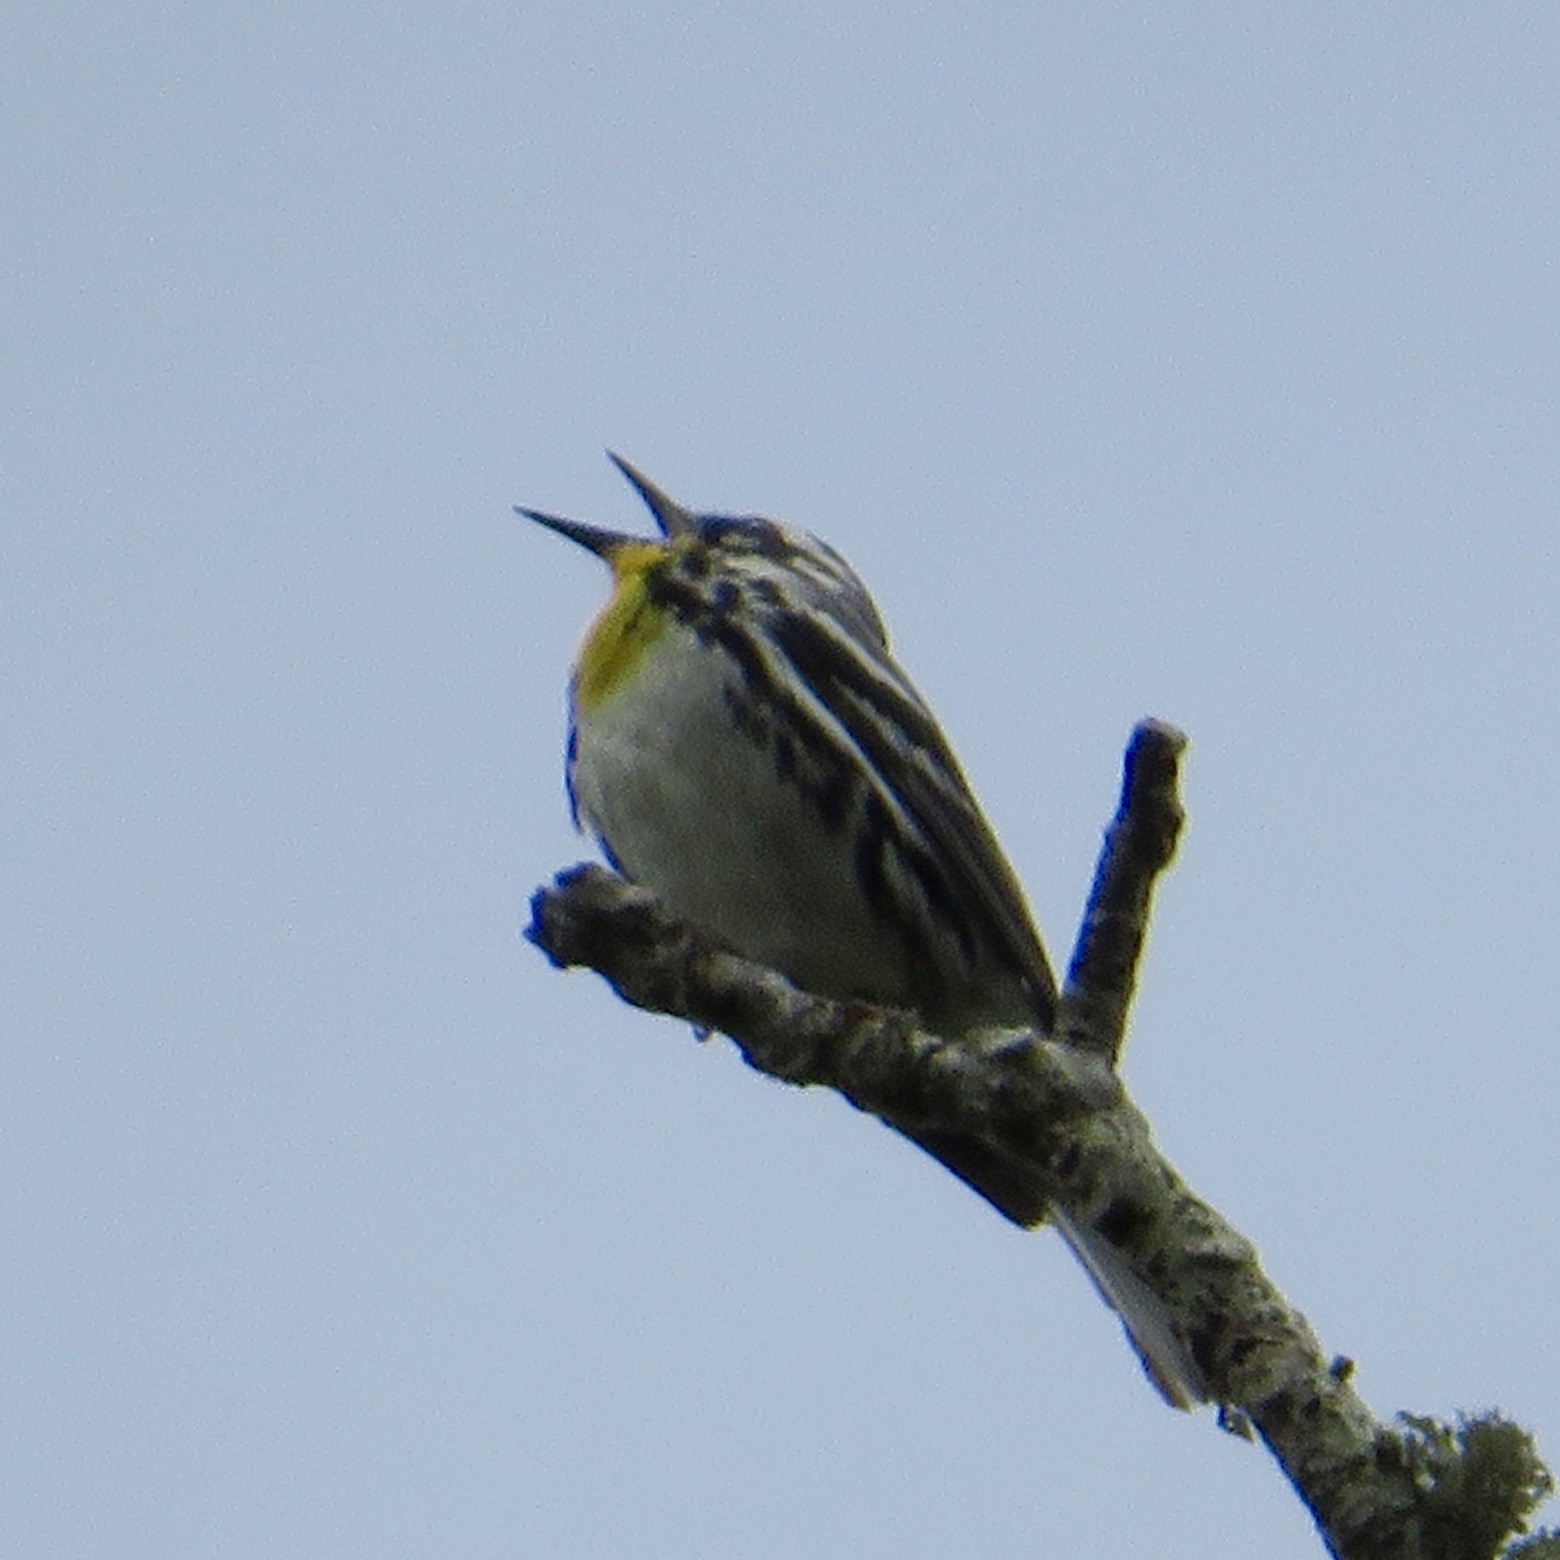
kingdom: Animalia
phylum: Chordata
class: Aves
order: Passeriformes
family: Parulidae
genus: Setophaga
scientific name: Setophaga dominica
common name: Yellow-throated warbler
